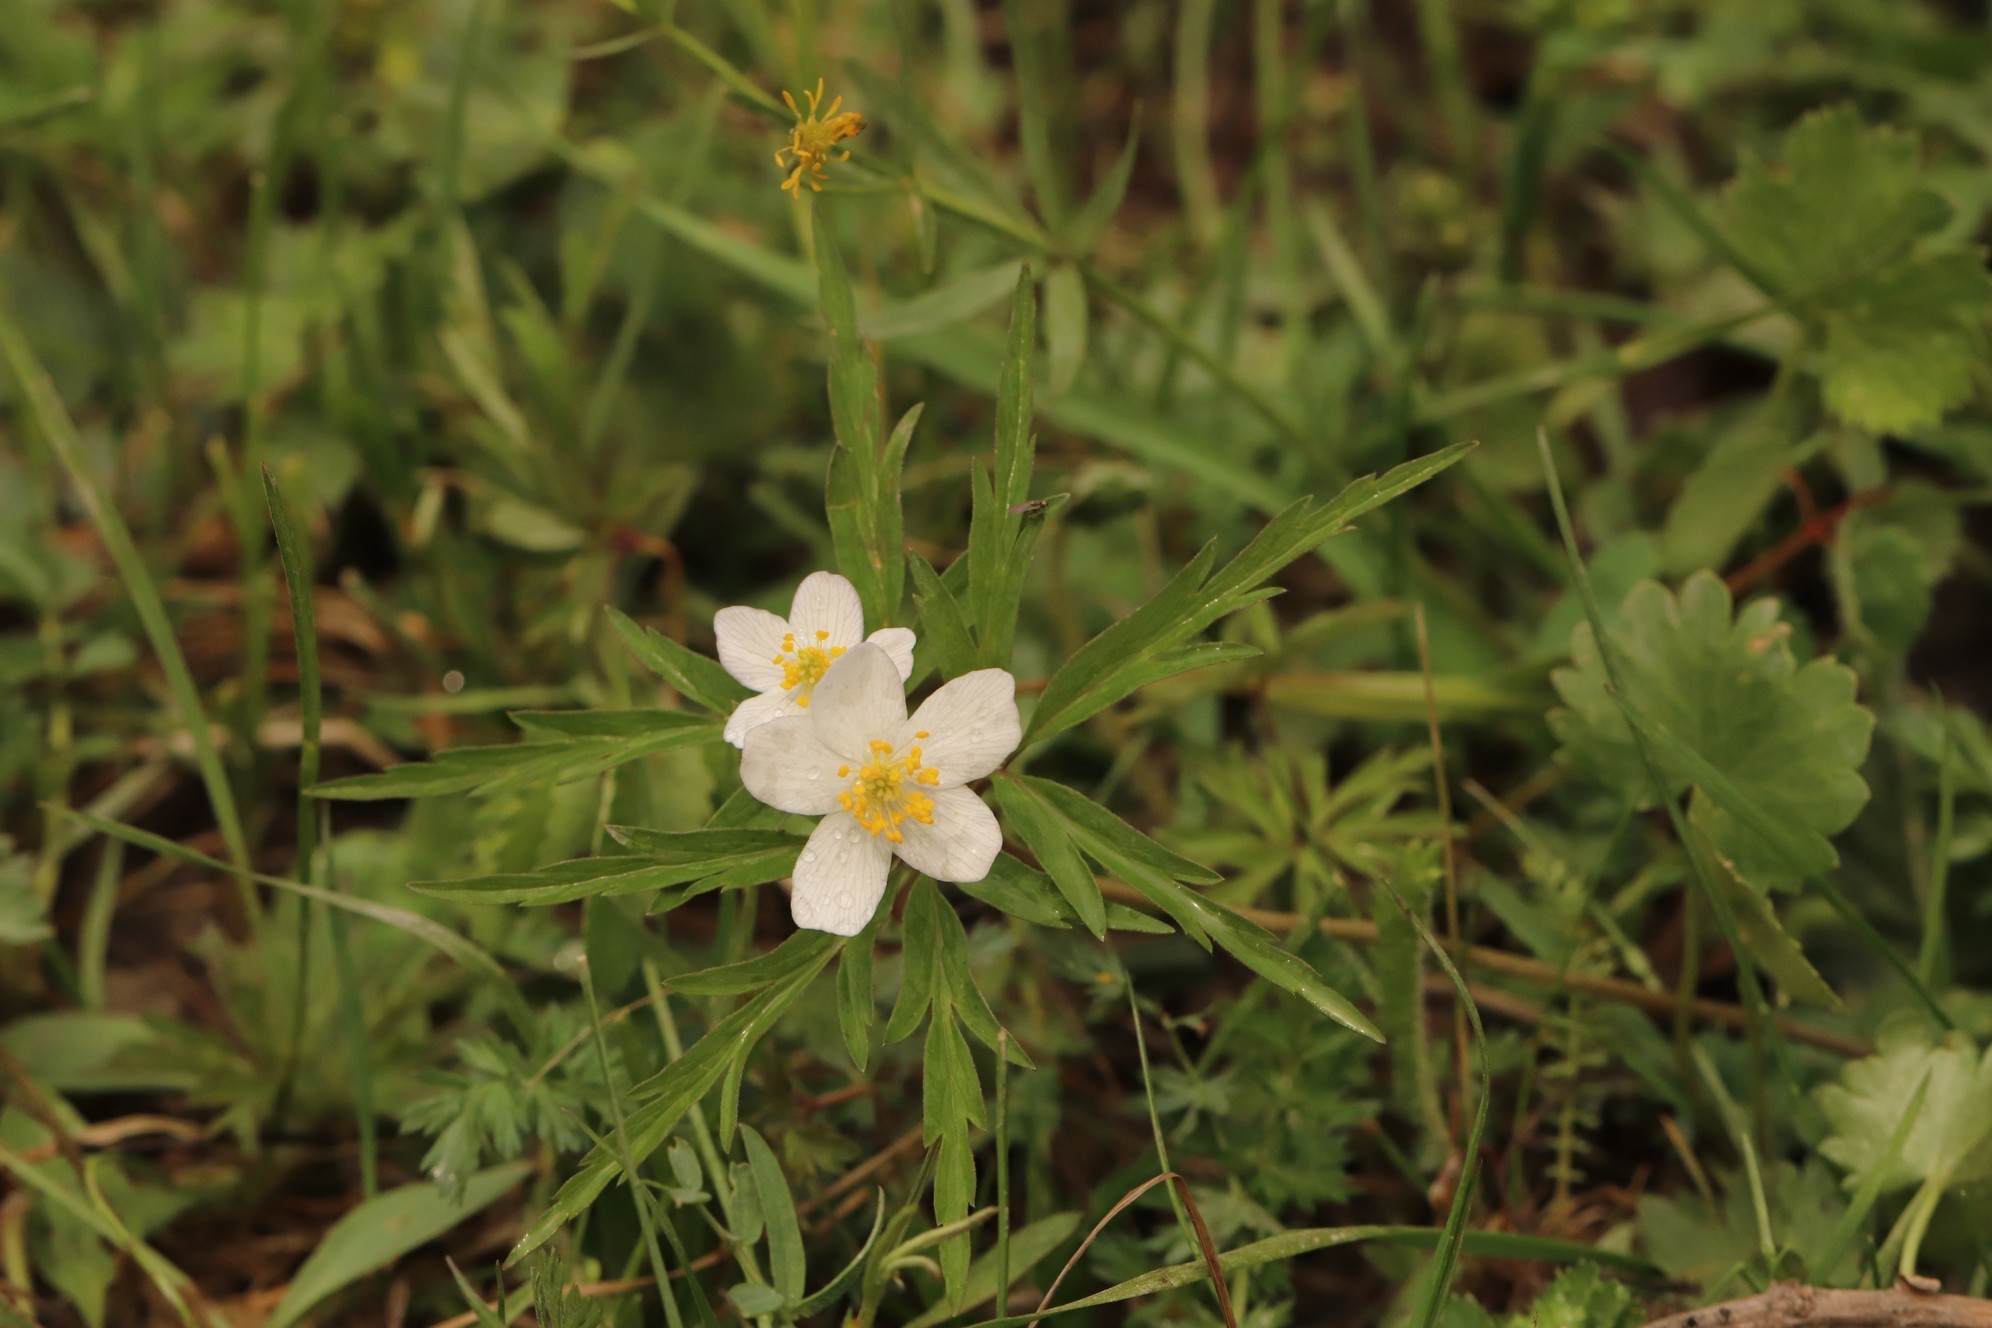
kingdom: Plantae
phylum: Tracheophyta
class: Magnoliopsida
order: Ranunculales
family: Ranunculaceae
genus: Anemone
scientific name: Anemone caerulea
